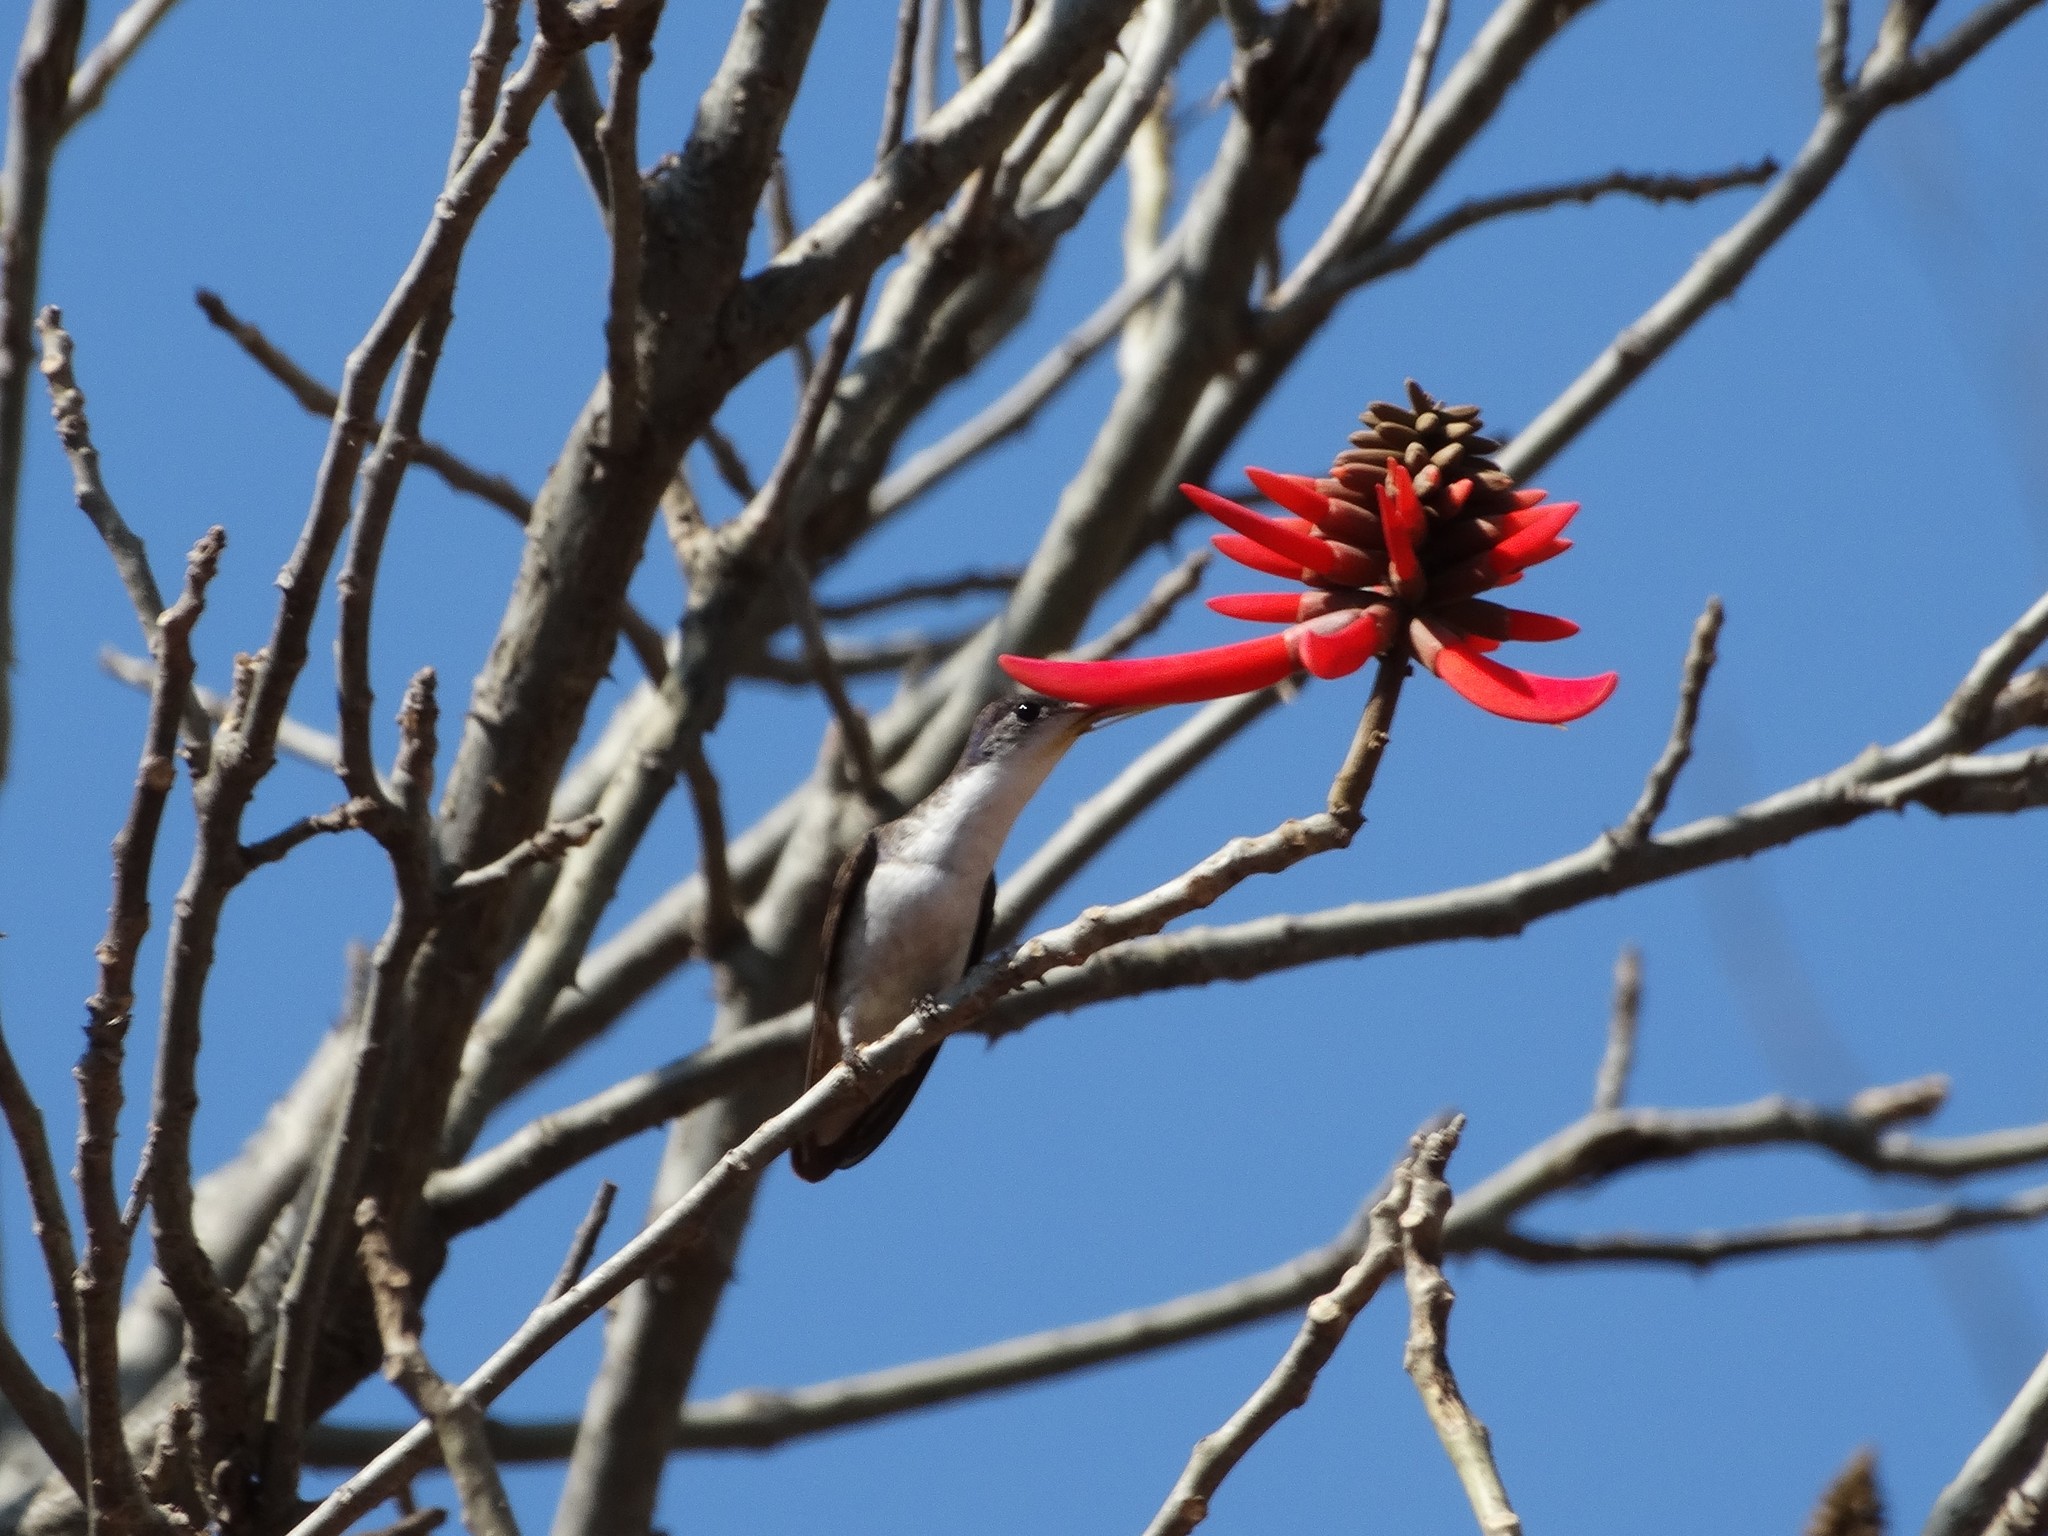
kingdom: Animalia
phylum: Chordata
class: Aves
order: Apodiformes
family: Trochilidae
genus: Leucolia
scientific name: Leucolia violiceps
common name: Violet-crowned hummingbird
